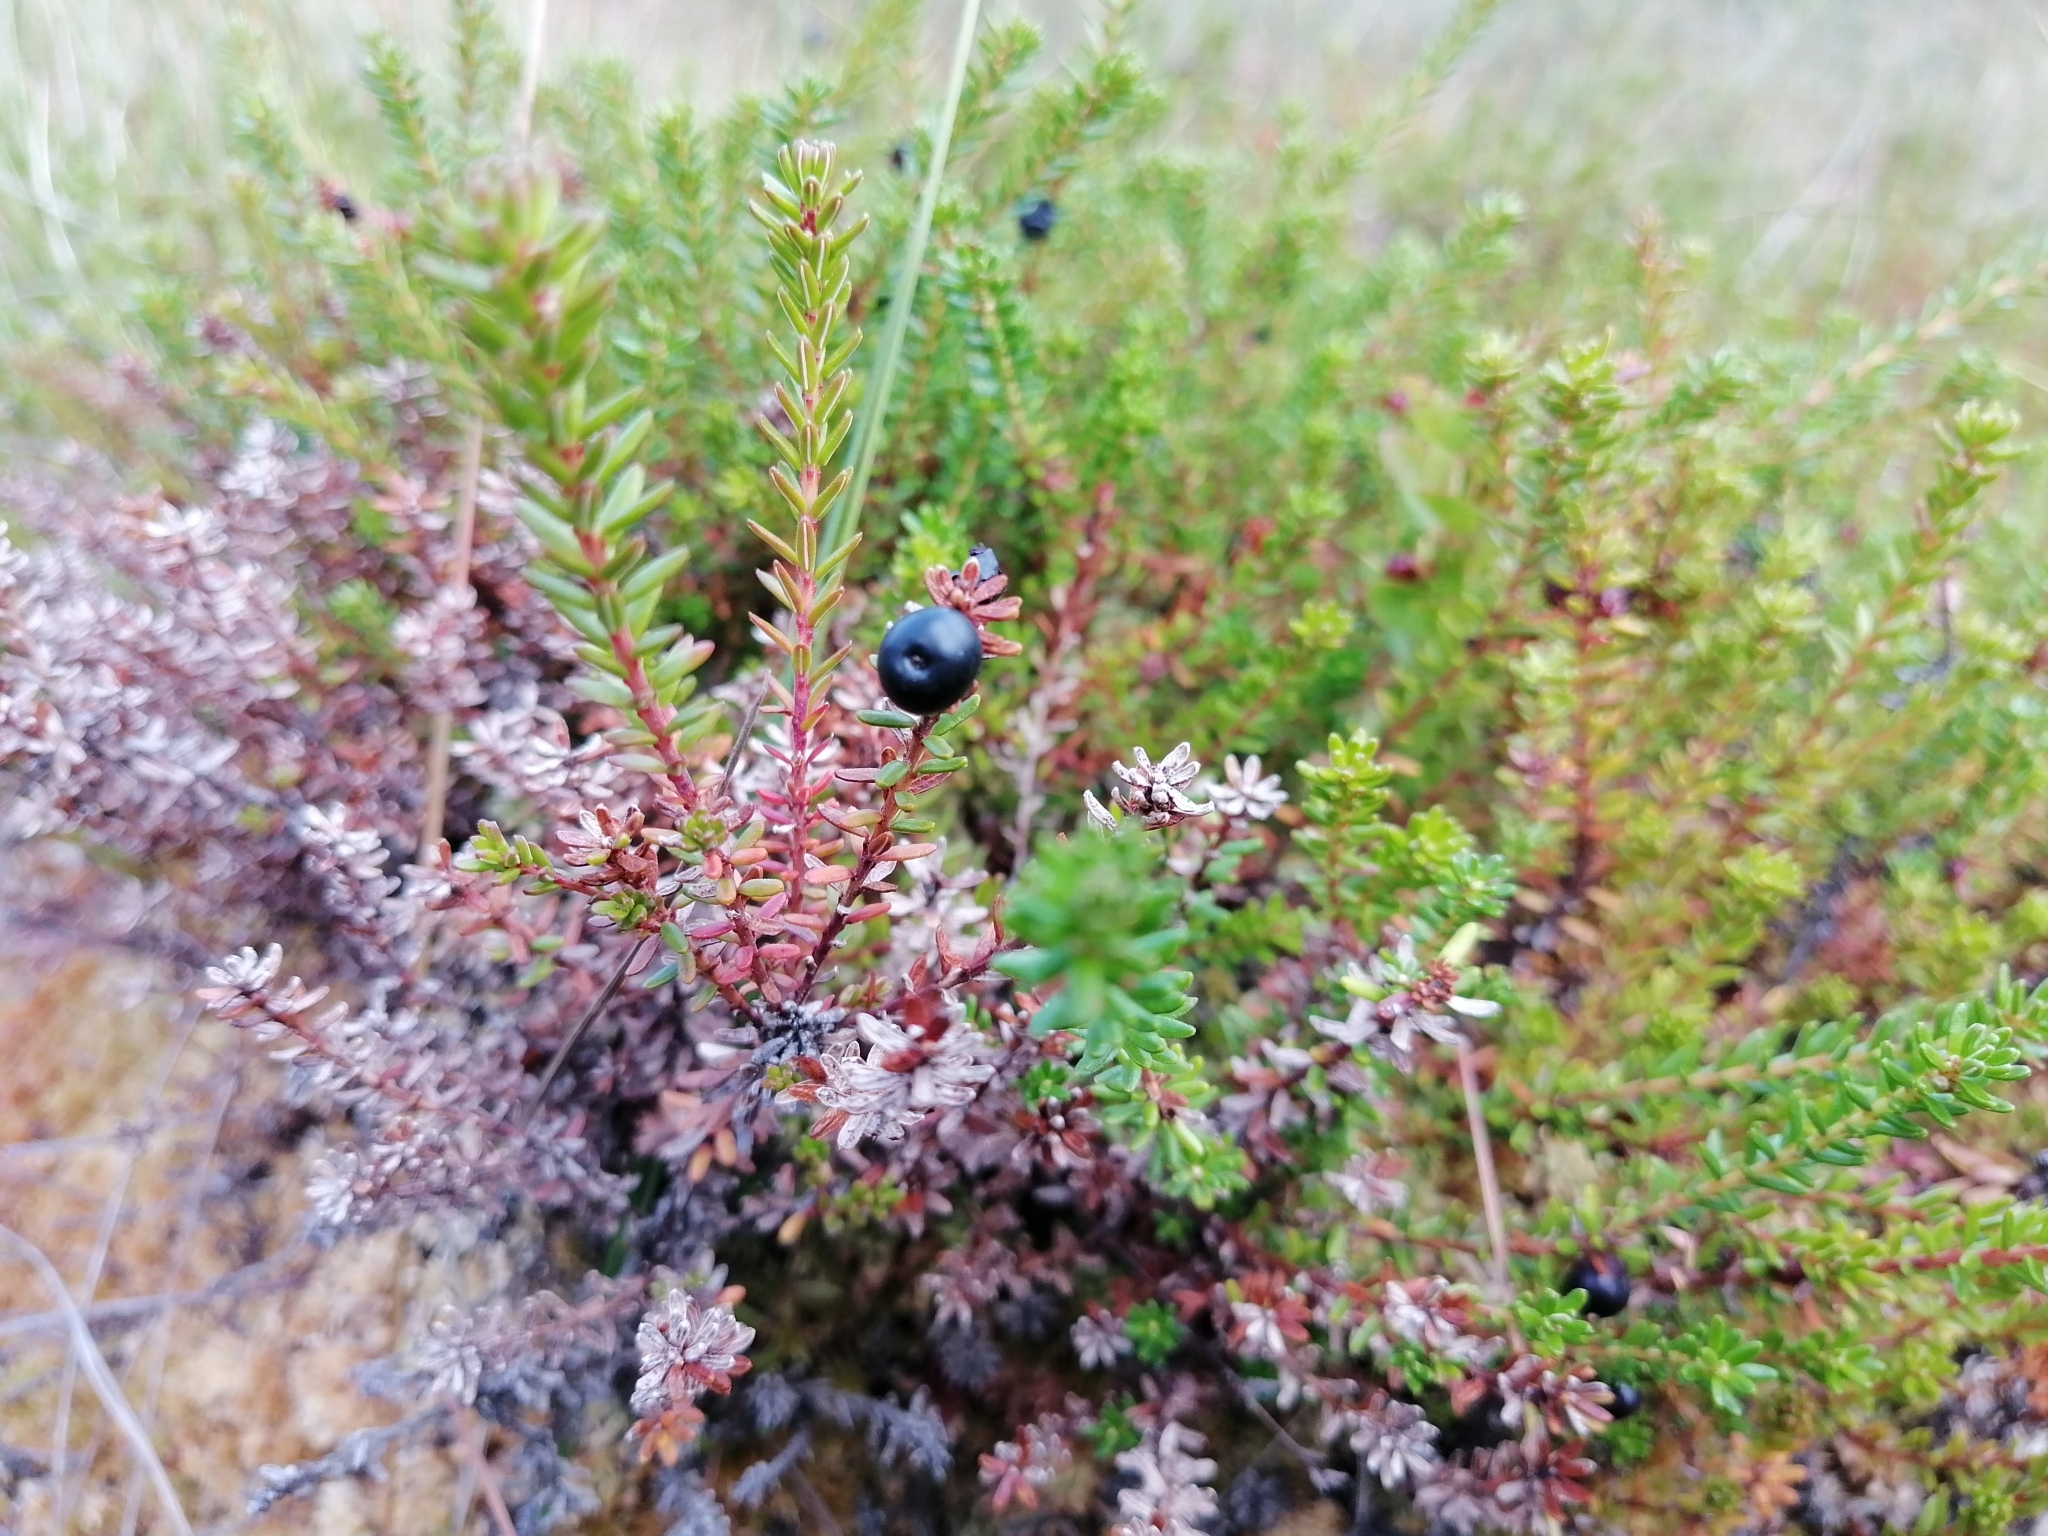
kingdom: Plantae
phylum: Tracheophyta
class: Magnoliopsida
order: Ericales
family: Ericaceae
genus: Empetrum
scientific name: Empetrum nigrum
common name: Black crowberry
